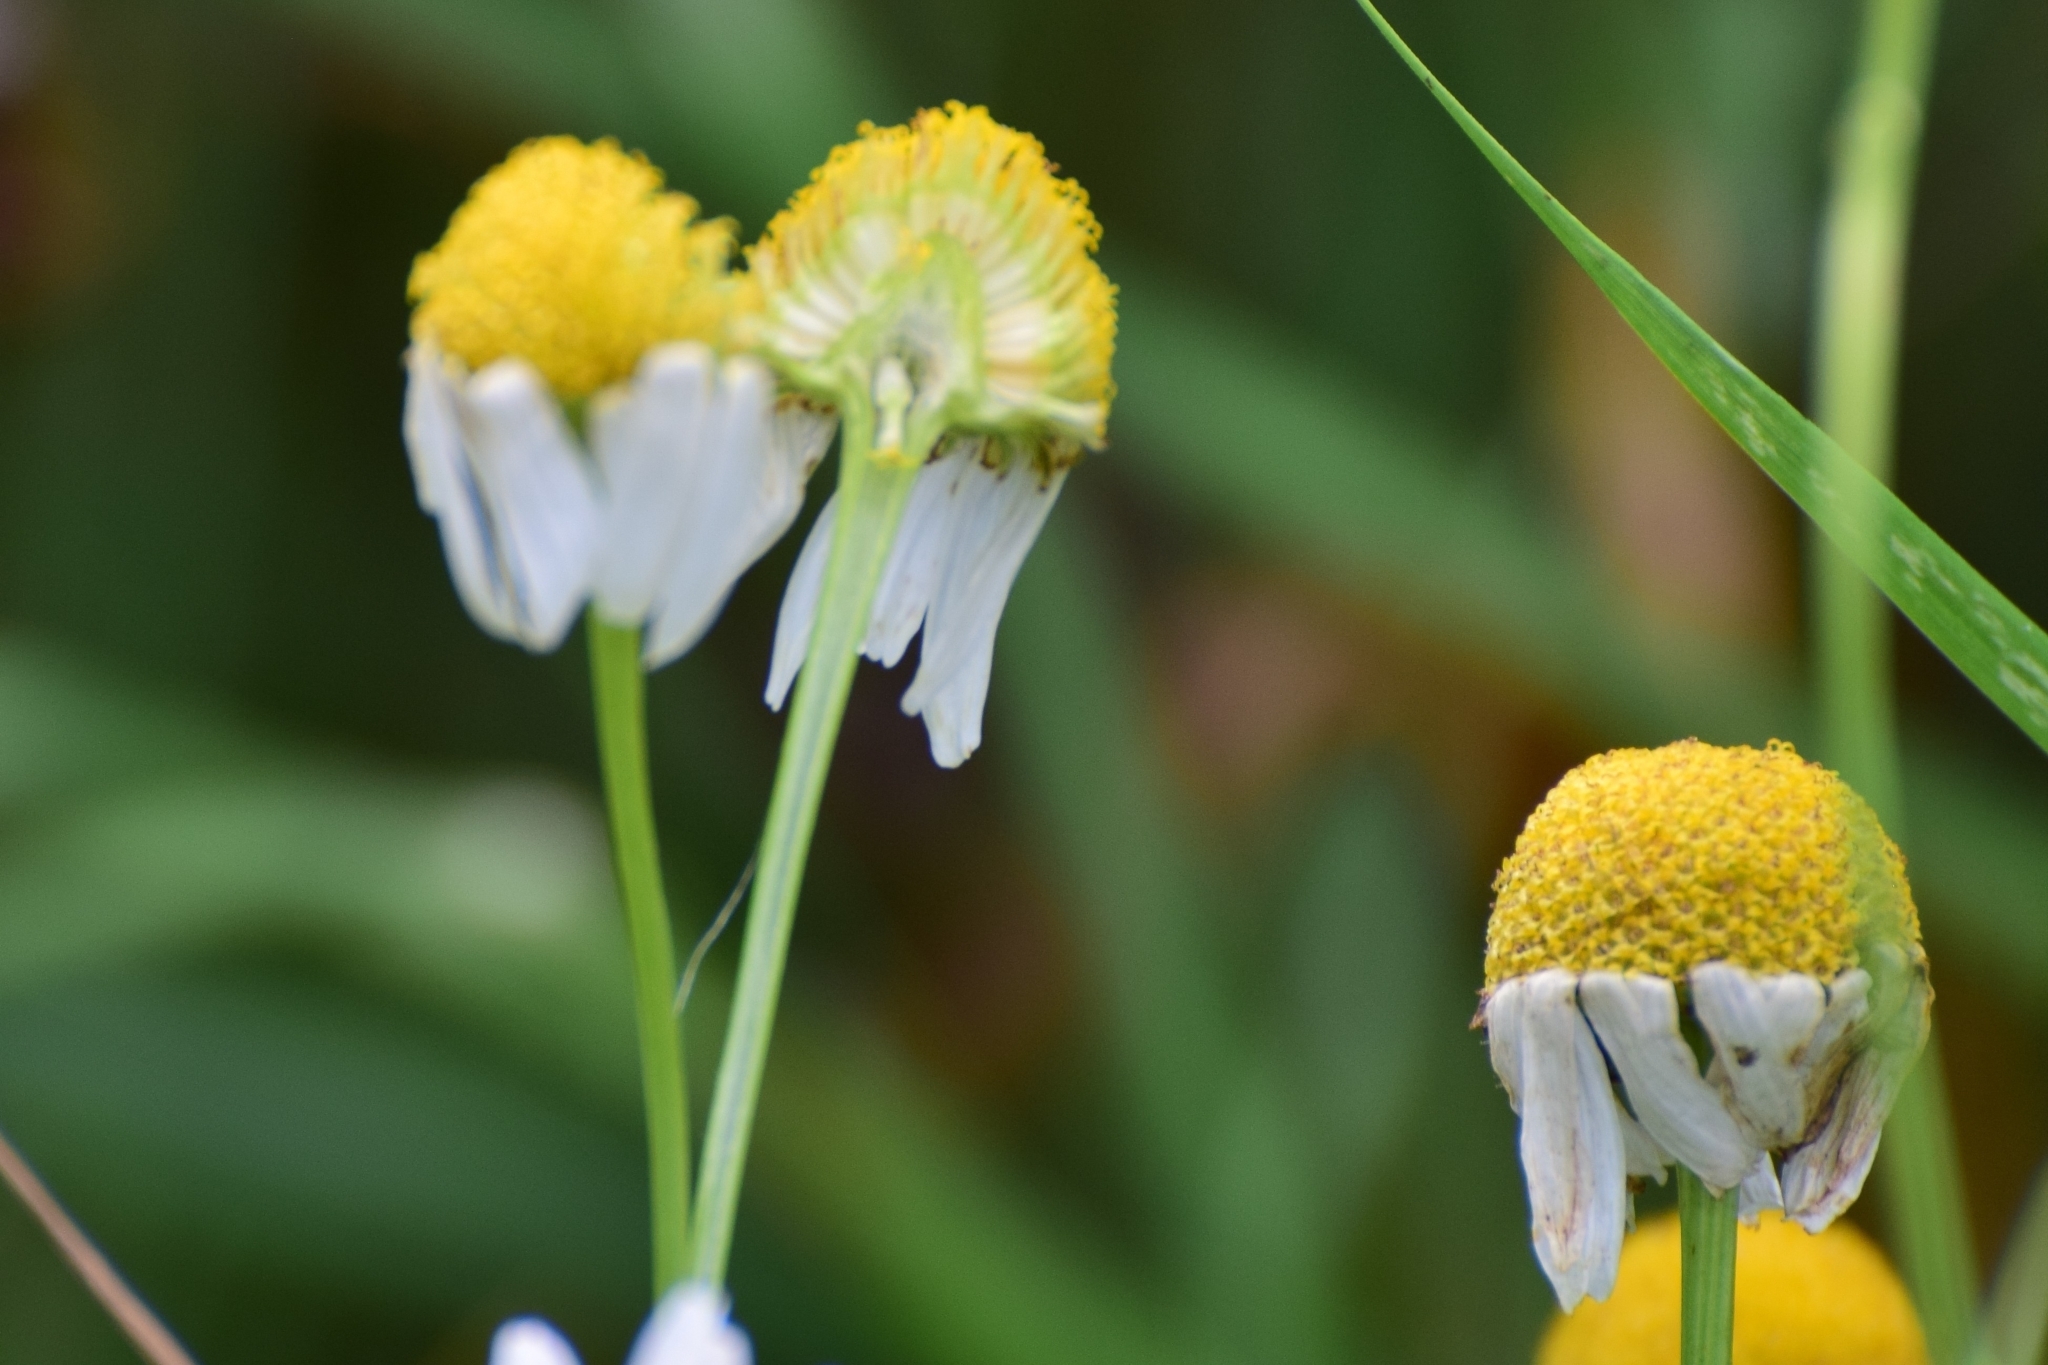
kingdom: Plantae
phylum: Tracheophyta
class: Magnoliopsida
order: Asterales
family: Asteraceae
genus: Tripleurospermum
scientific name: Tripleurospermum inodorum
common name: Scentless mayweed
